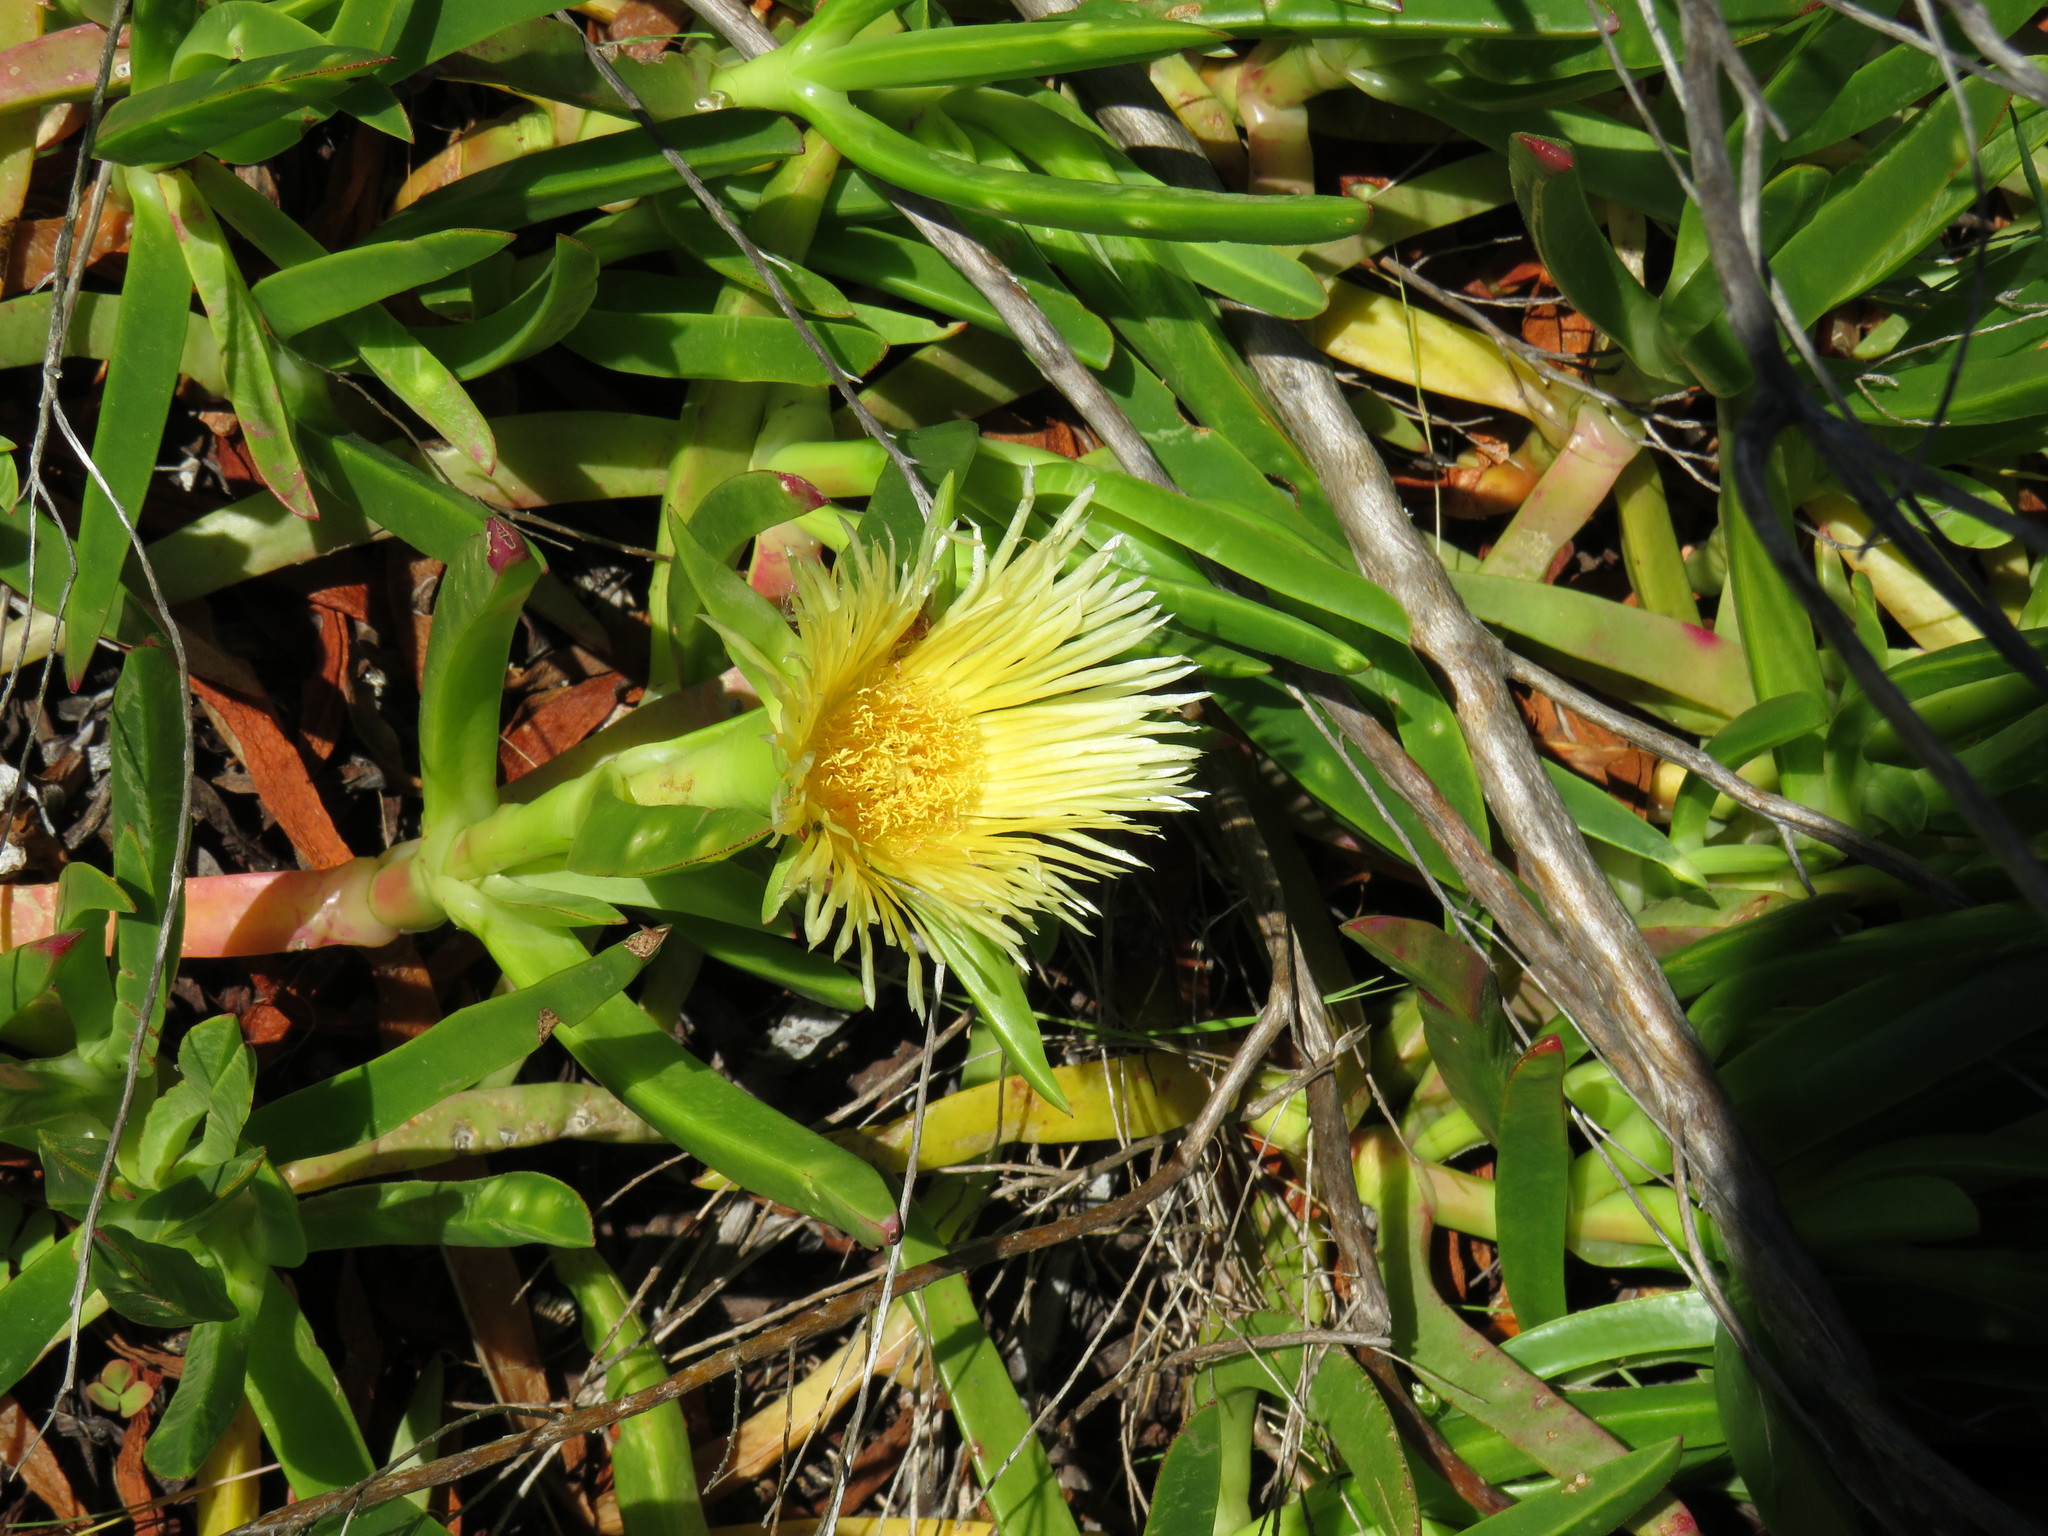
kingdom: Plantae
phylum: Tracheophyta
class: Magnoliopsida
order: Caryophyllales
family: Aizoaceae
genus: Carpobrotus
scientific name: Carpobrotus edulis
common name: Hottentot-fig
